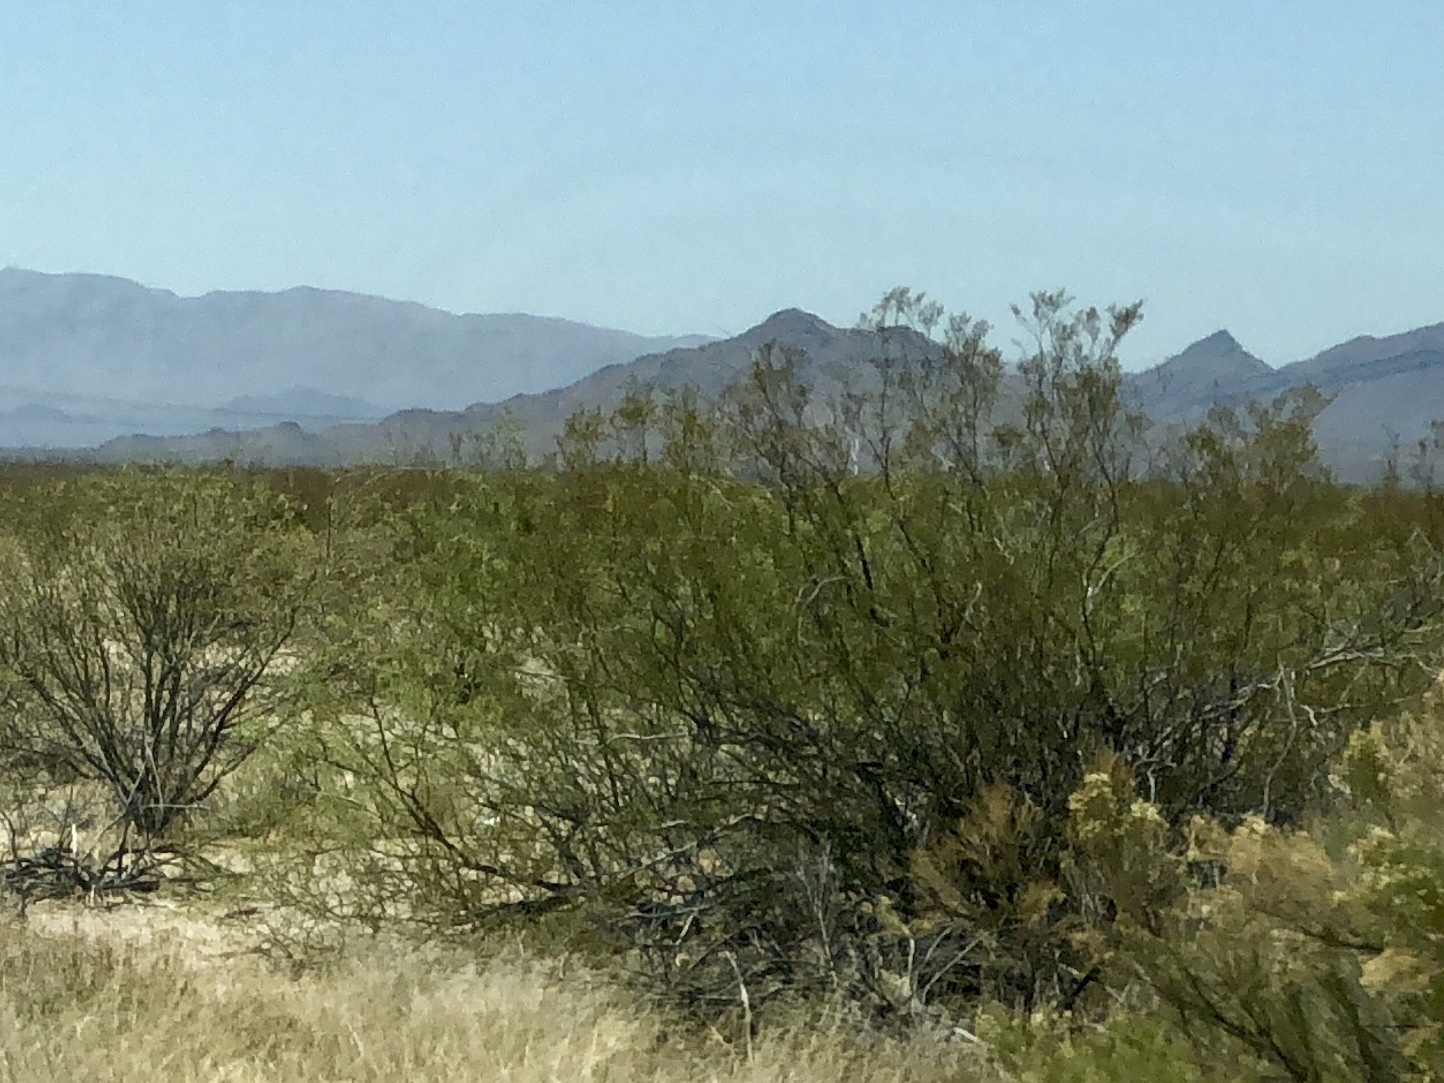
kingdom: Plantae
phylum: Tracheophyta
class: Magnoliopsida
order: Zygophyllales
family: Zygophyllaceae
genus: Larrea
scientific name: Larrea tridentata
